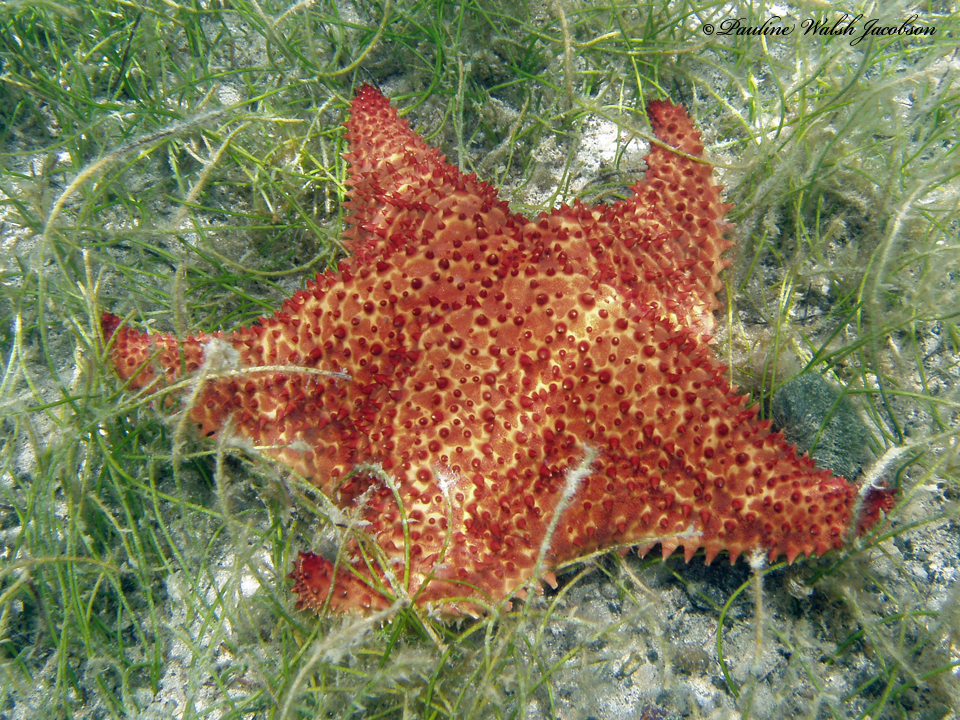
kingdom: Animalia
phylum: Echinodermata
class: Asteroidea
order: Valvatida
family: Oreasteridae
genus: Oreaster
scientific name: Oreaster reticulatus
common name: Cushion sea star
